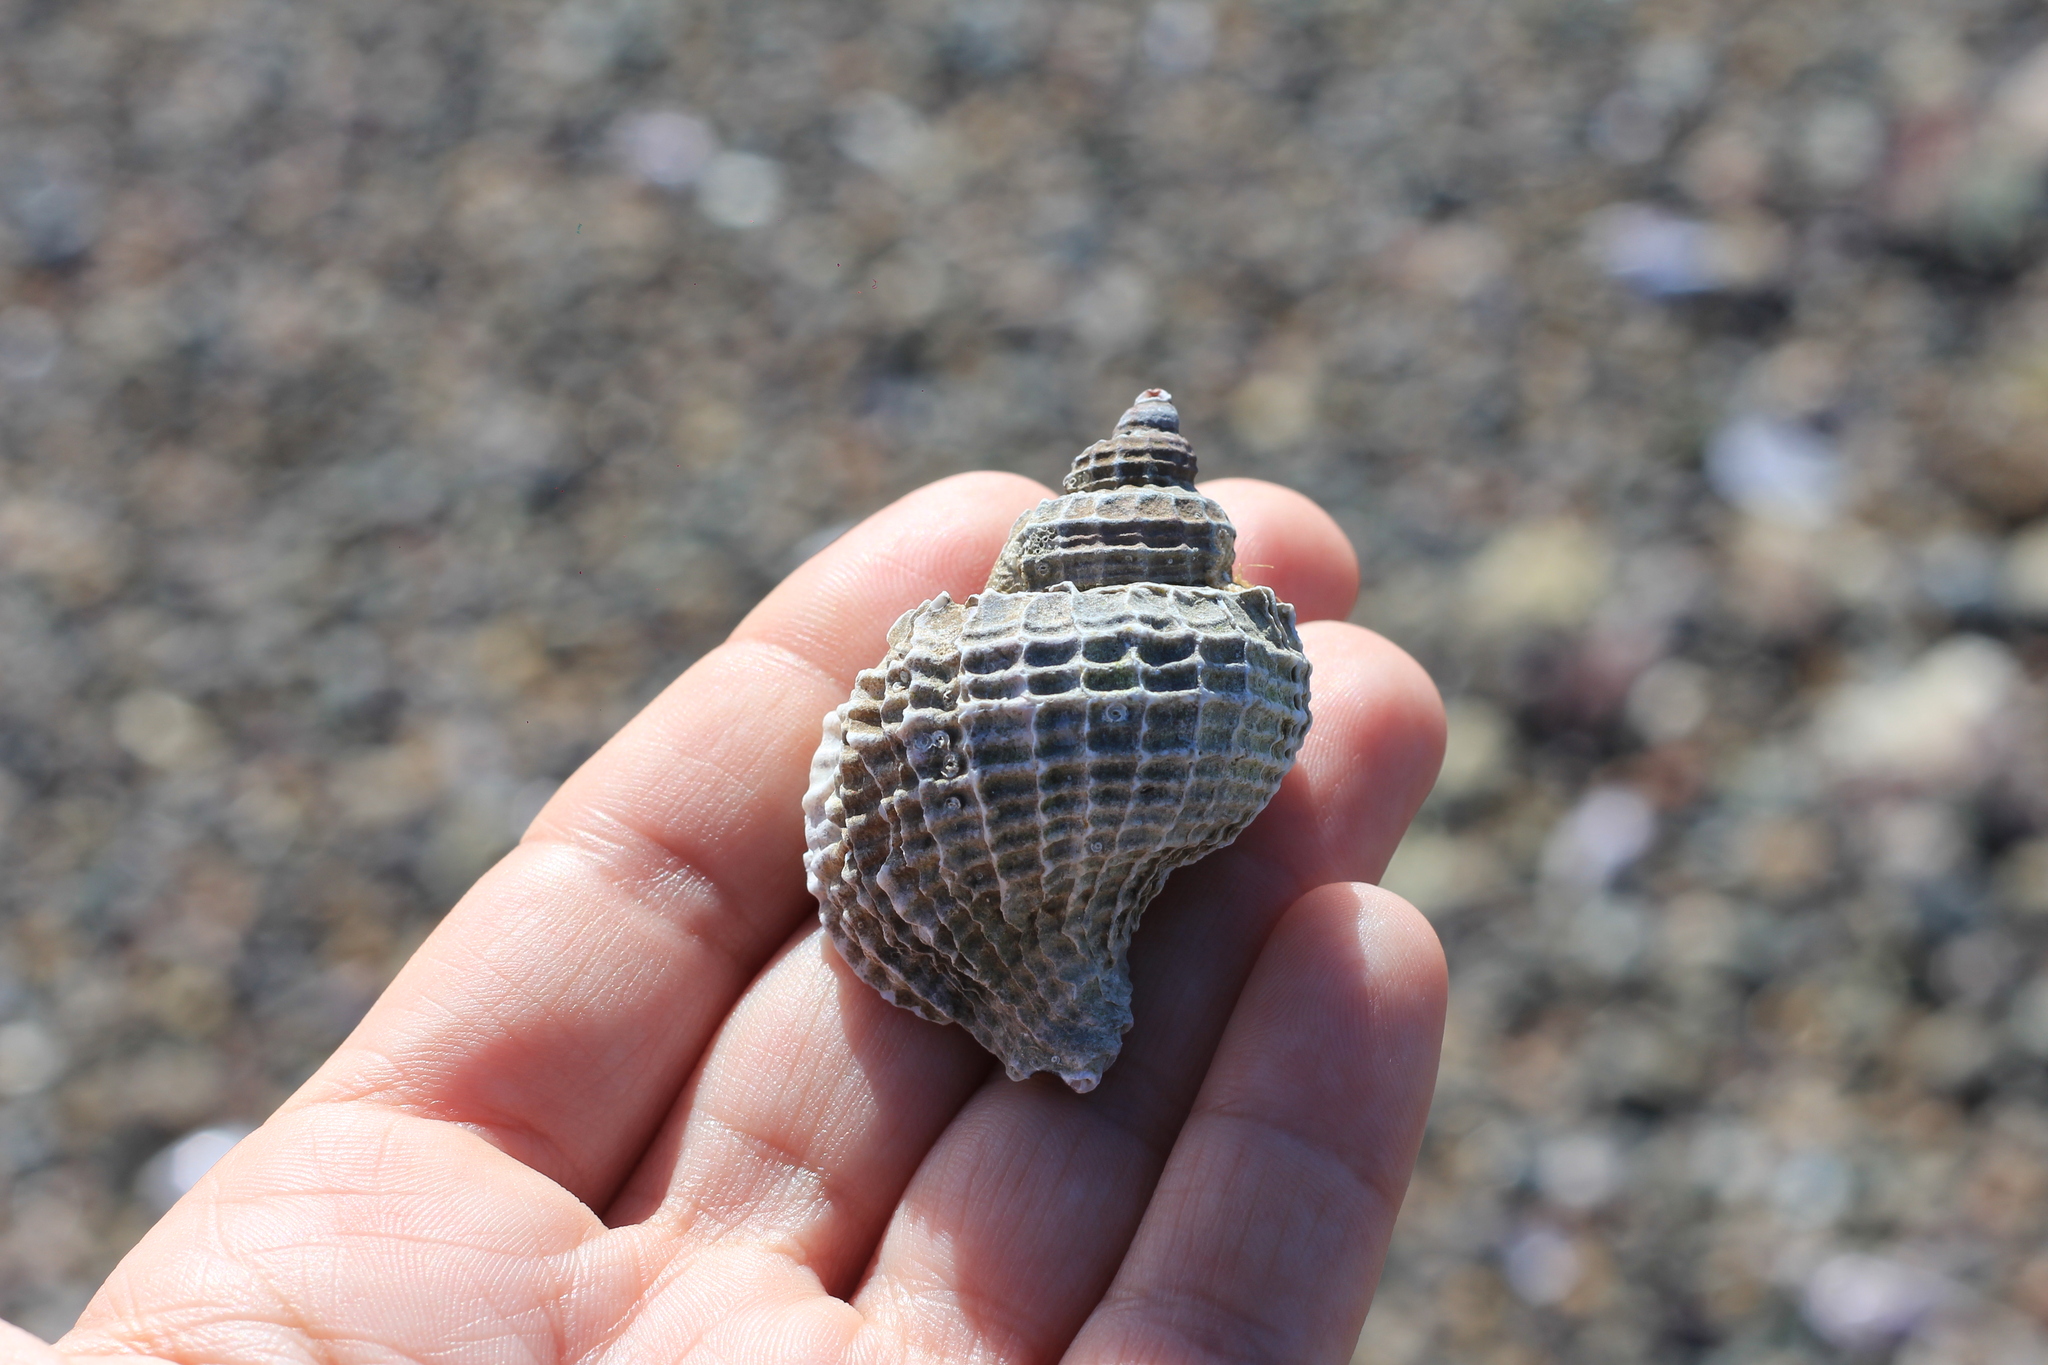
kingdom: Animalia
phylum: Mollusca
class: Gastropoda
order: Neogastropoda
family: Muricidae
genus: Trophon
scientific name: Trophon geversianus
